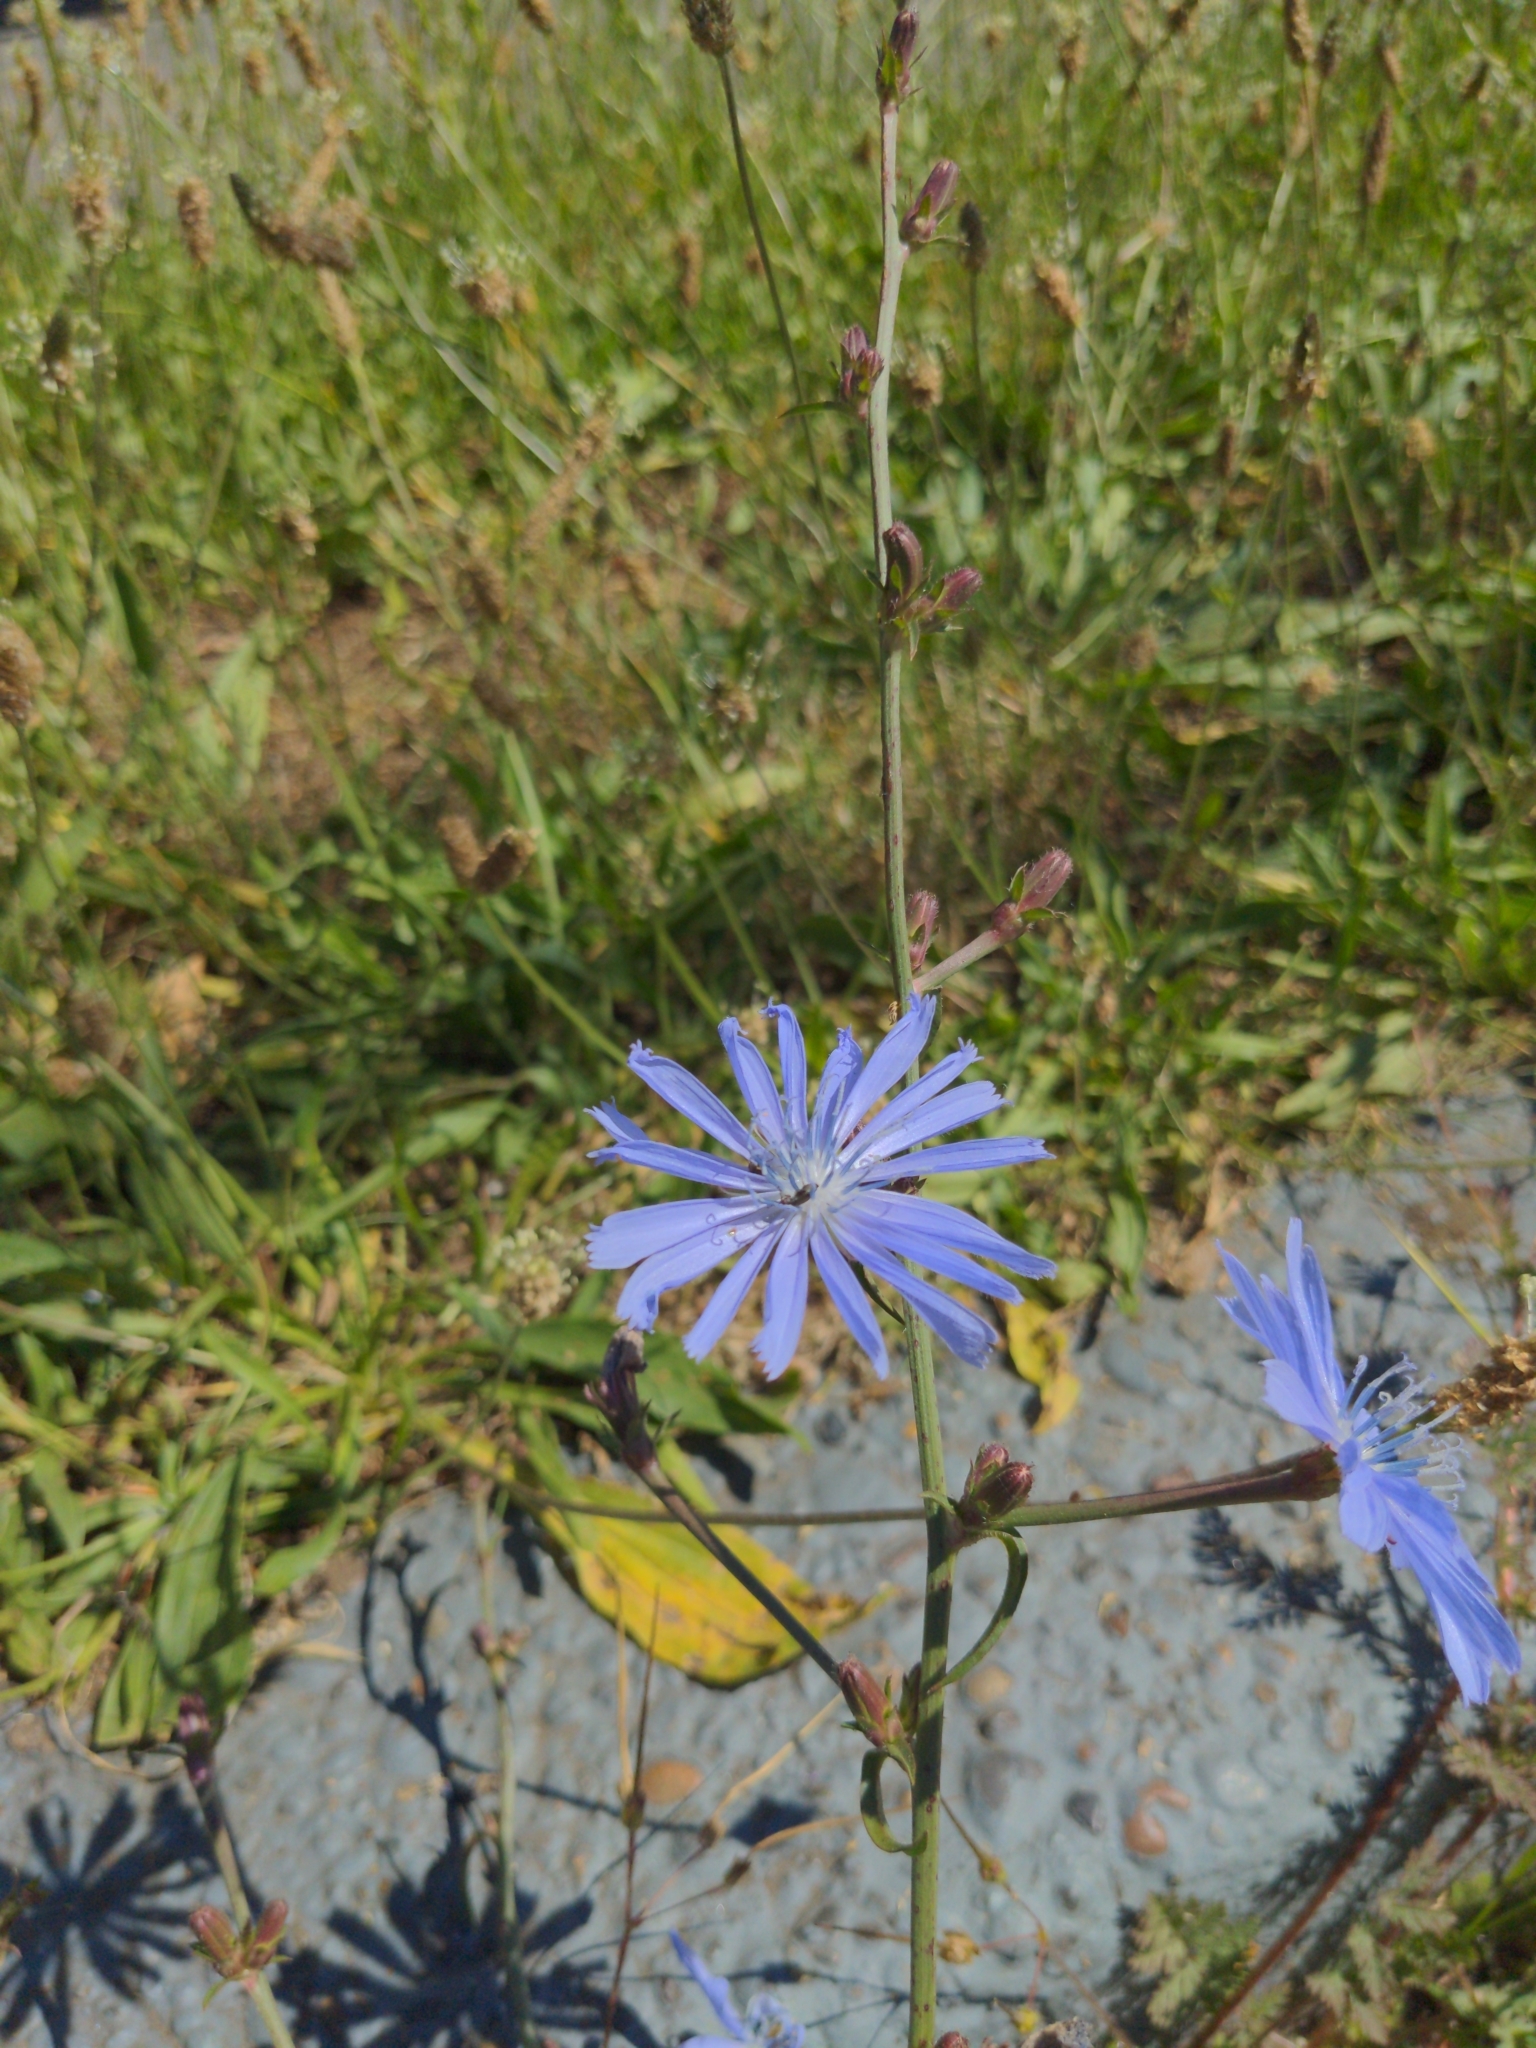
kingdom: Plantae
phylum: Tracheophyta
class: Magnoliopsida
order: Asterales
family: Asteraceae
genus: Cichorium
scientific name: Cichorium intybus
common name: Chicory
